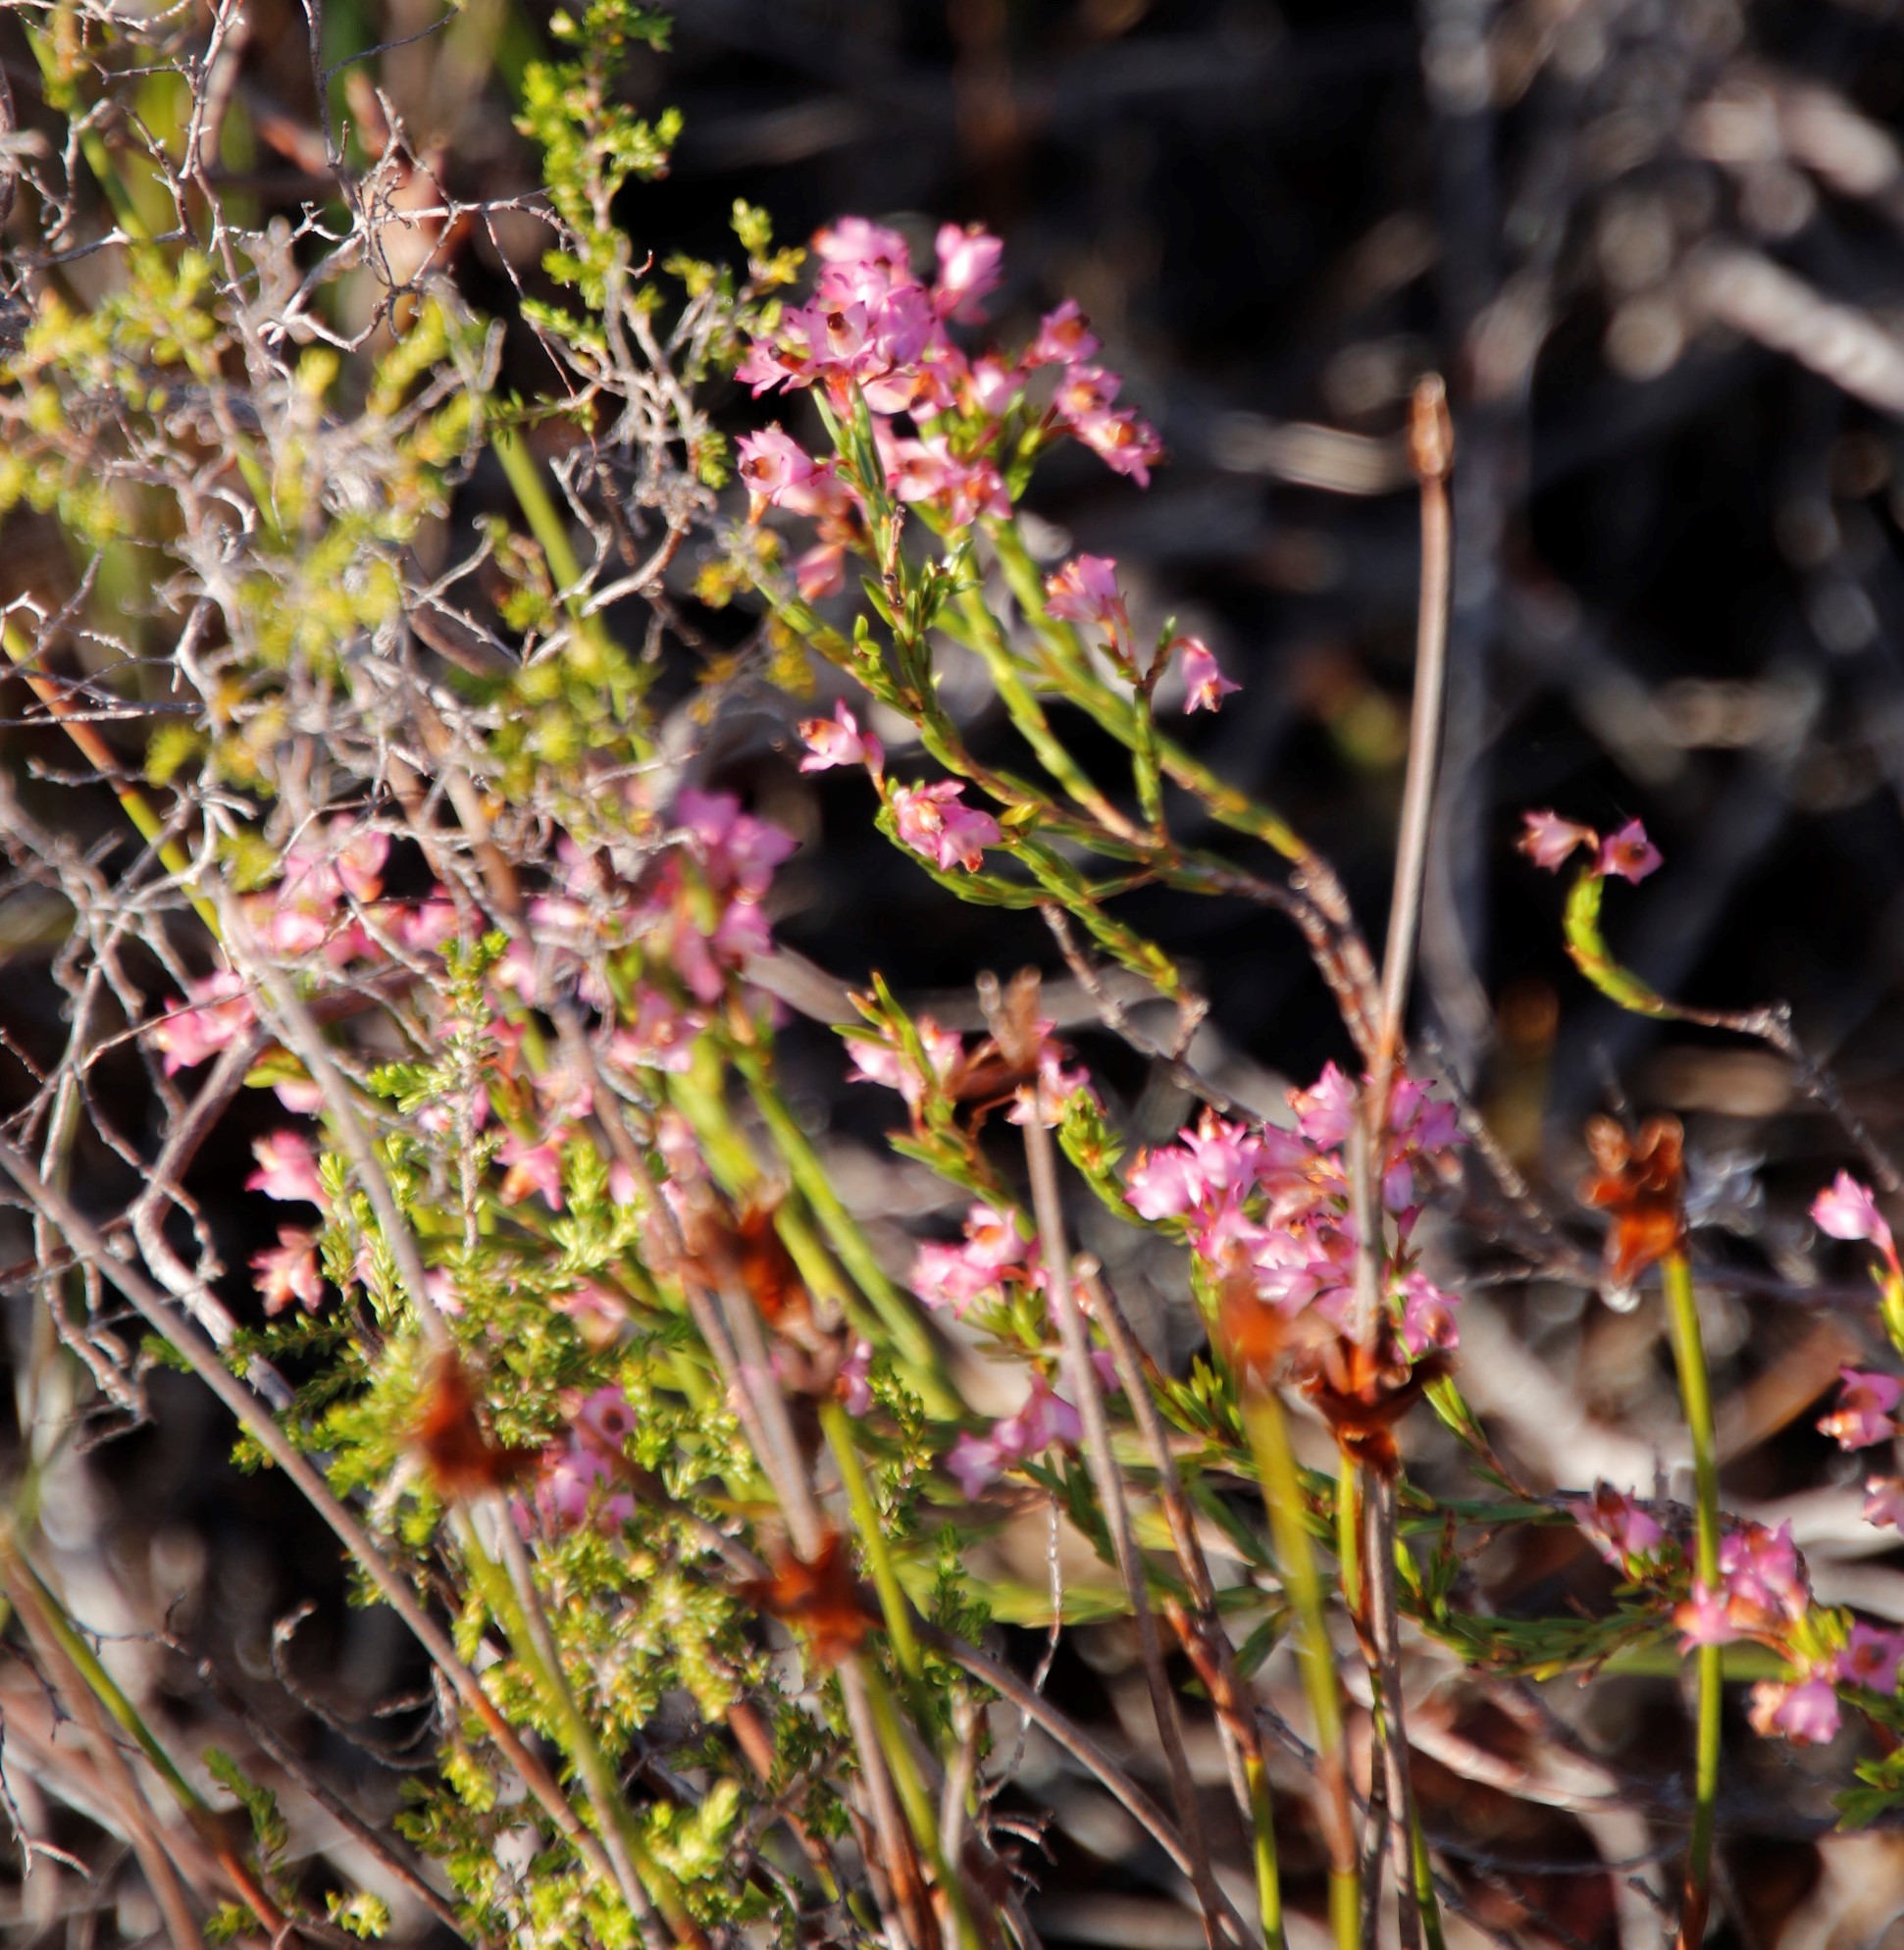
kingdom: Plantae
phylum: Tracheophyta
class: Magnoliopsida
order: Ericales
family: Ericaceae
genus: Erica
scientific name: Erica corifolia
